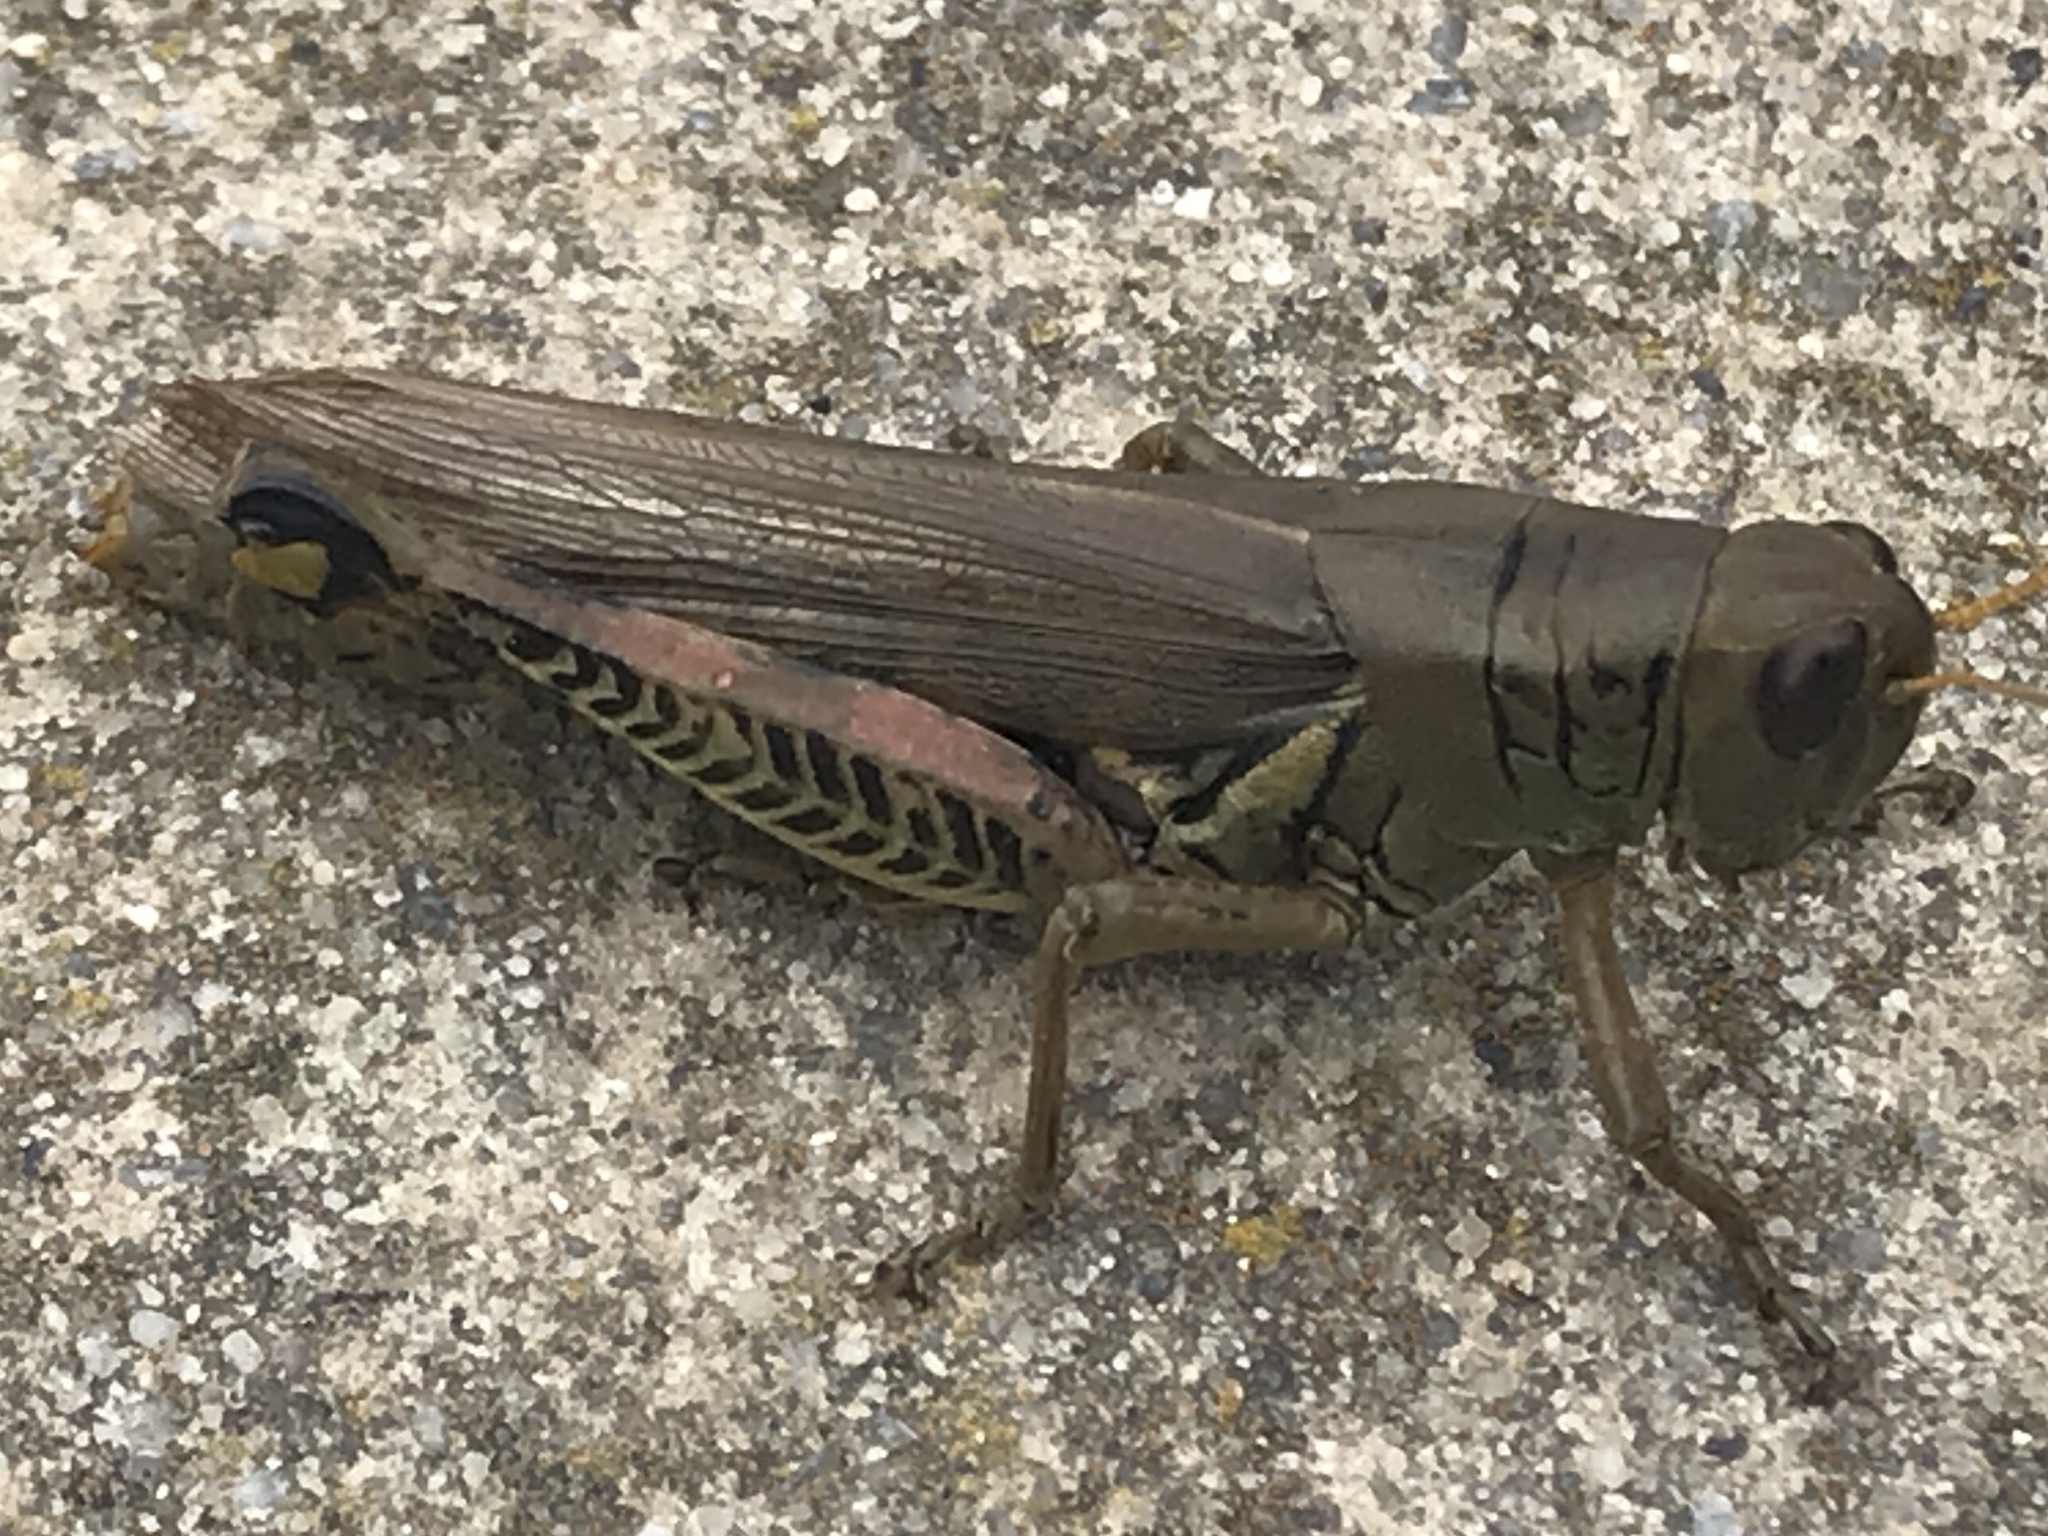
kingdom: Animalia
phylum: Arthropoda
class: Insecta
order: Orthoptera
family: Acrididae
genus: Melanoplus
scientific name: Melanoplus differentialis
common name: Differential grasshopper
